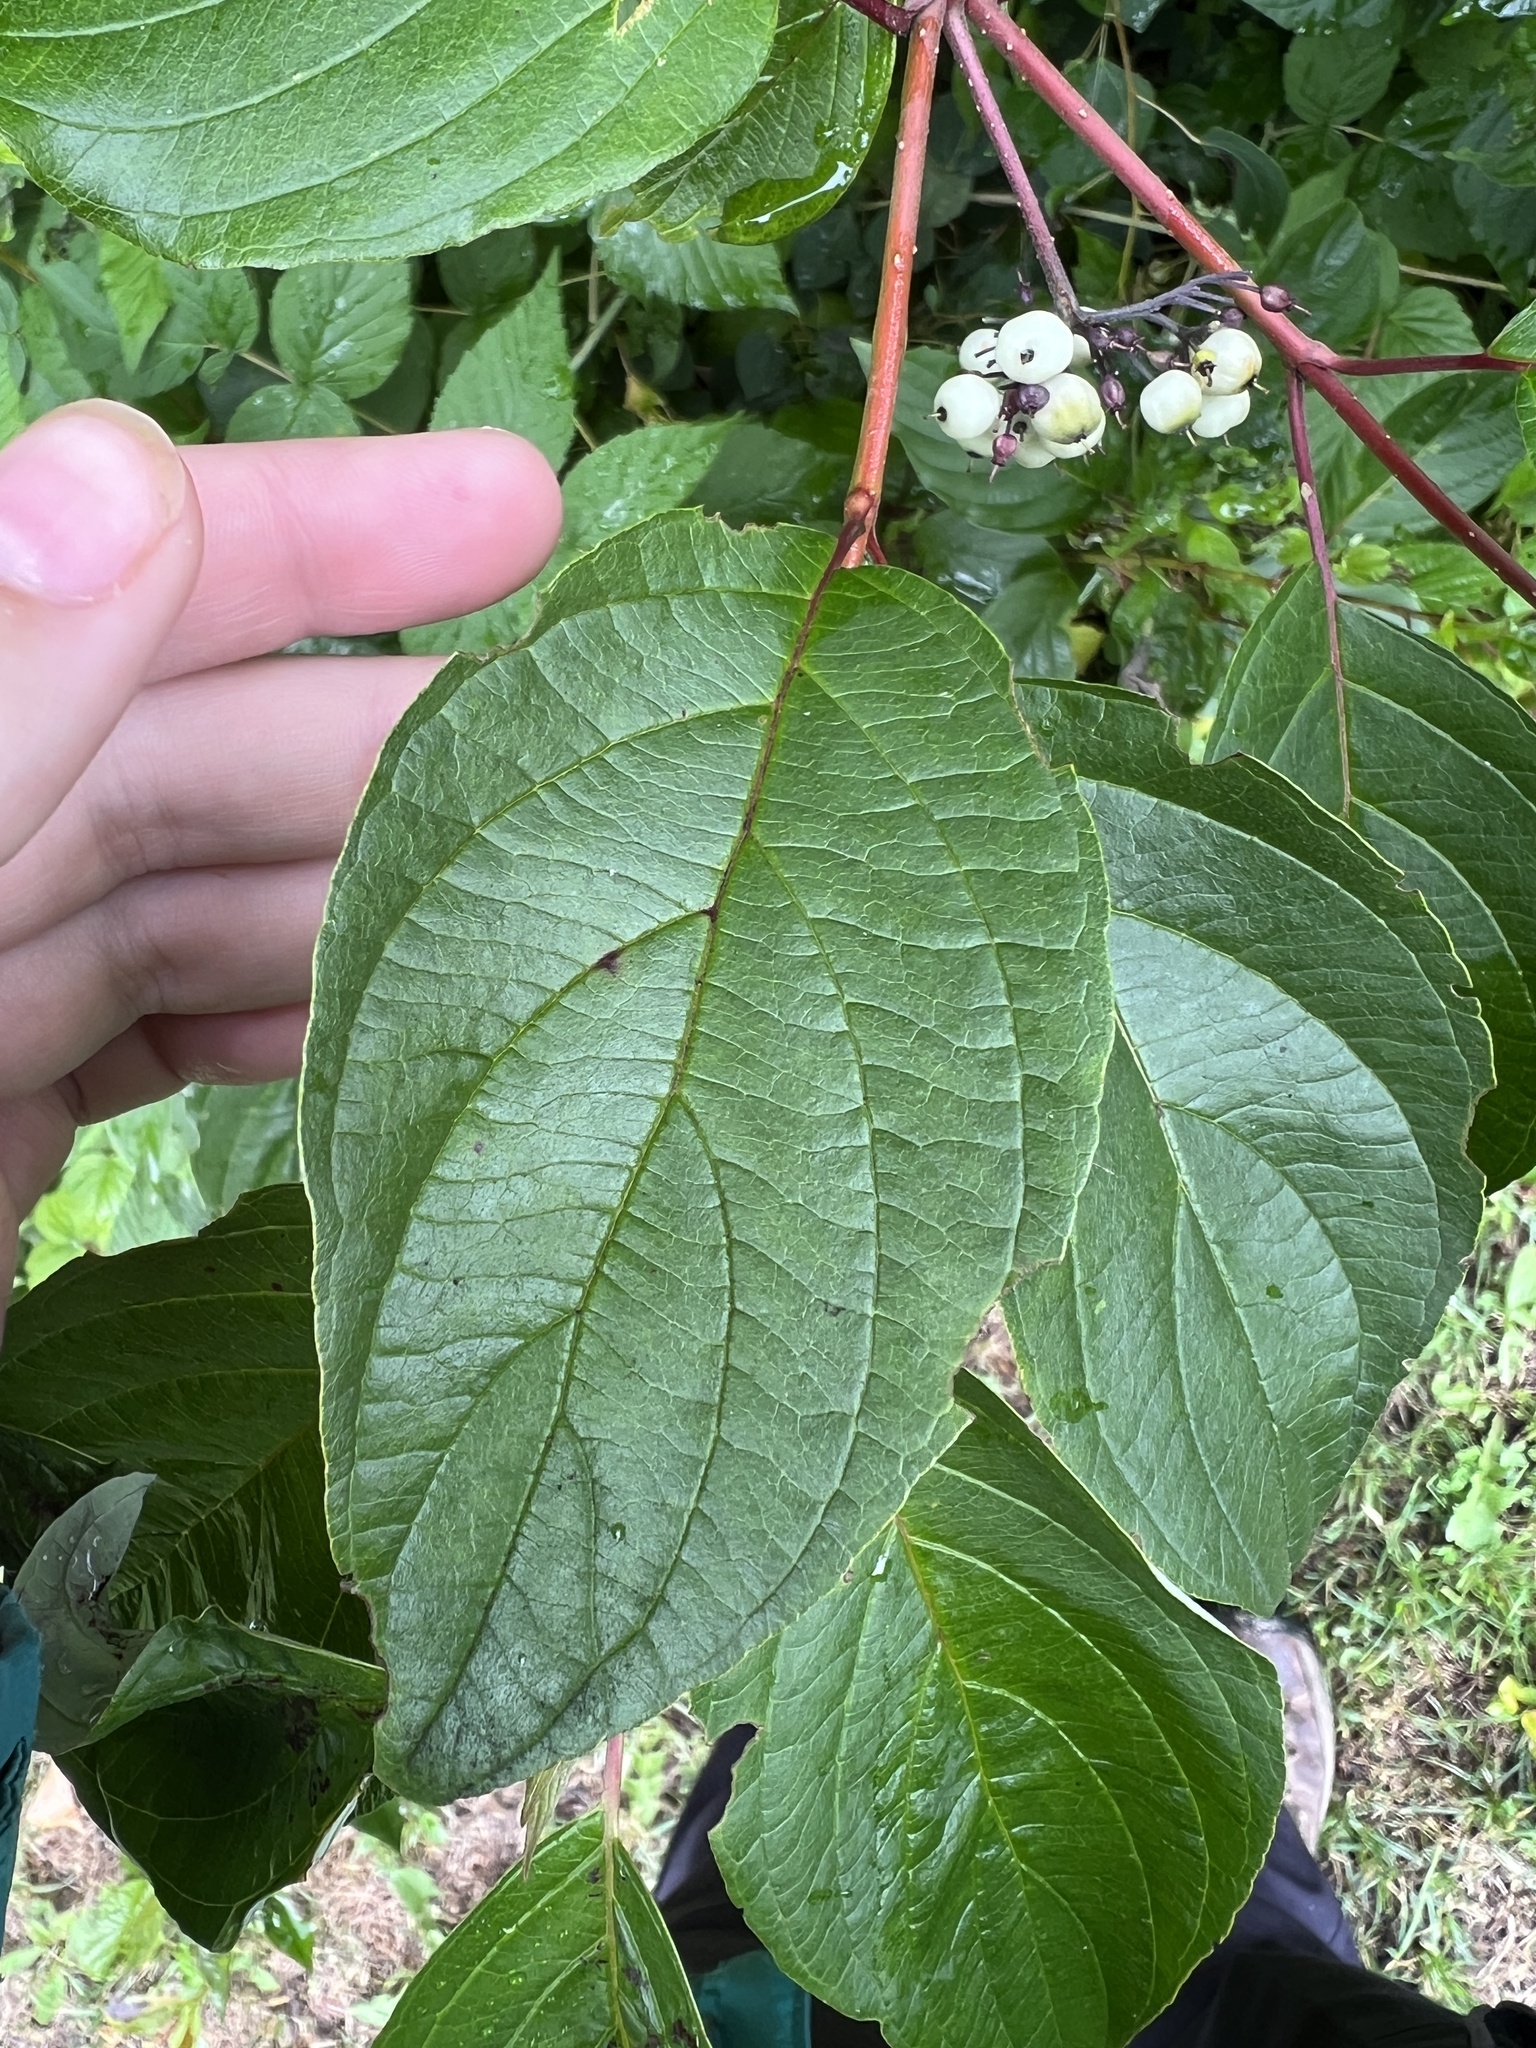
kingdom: Plantae
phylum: Tracheophyta
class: Magnoliopsida
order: Cornales
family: Cornaceae
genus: Cornus
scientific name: Cornus sericea
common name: Red-osier dogwood
